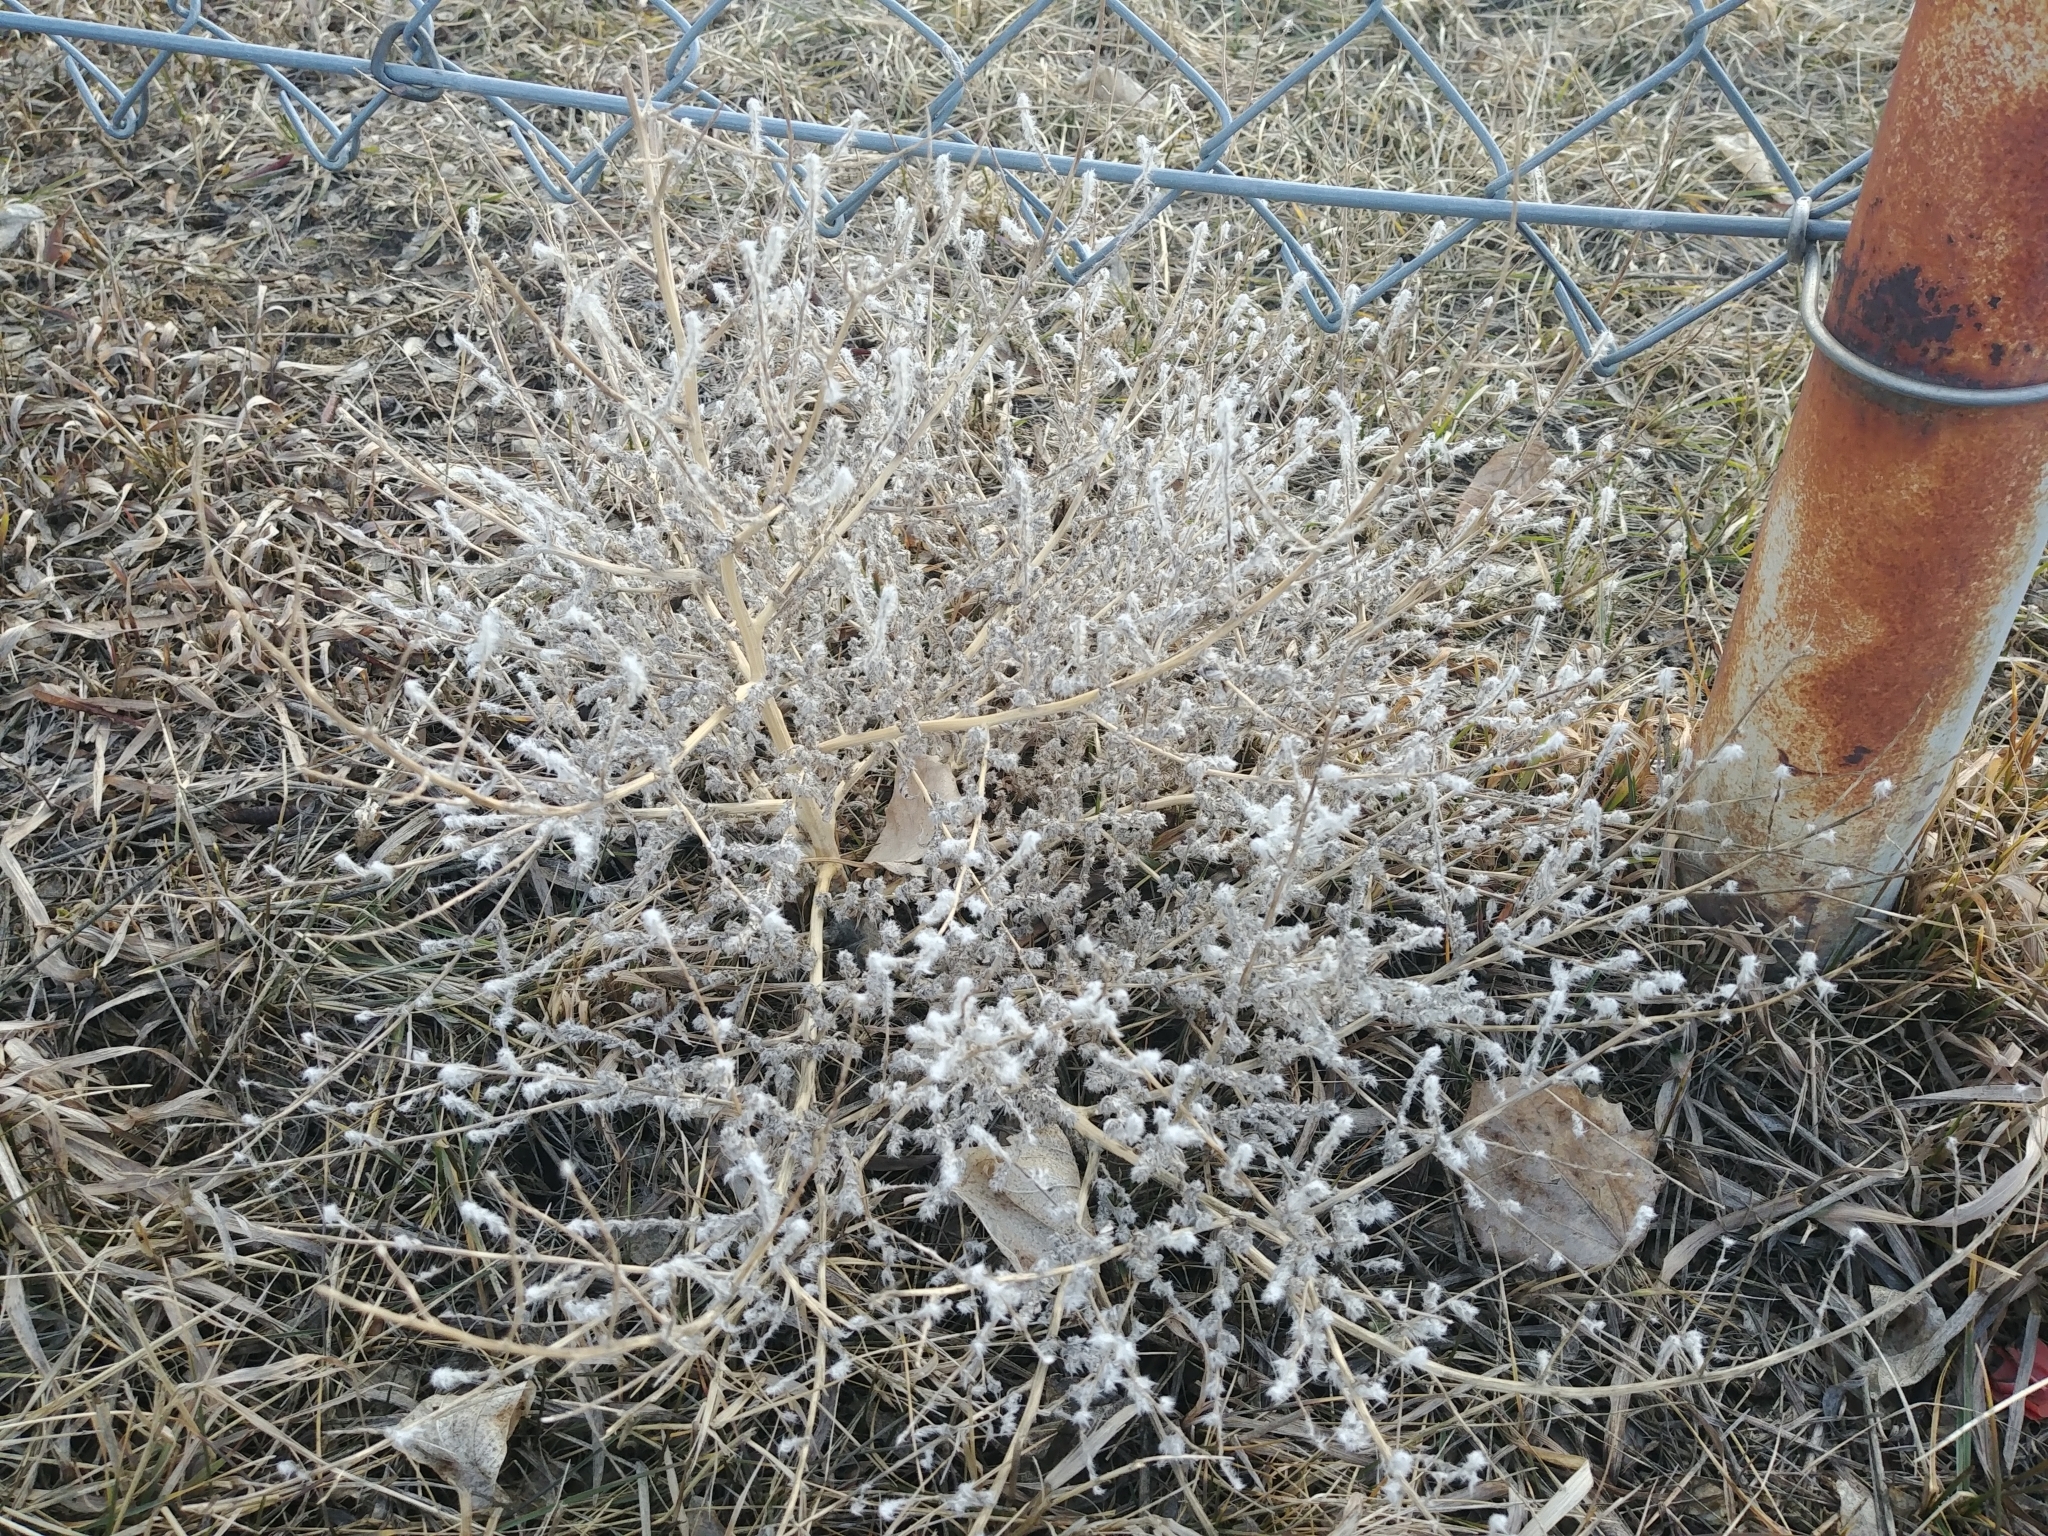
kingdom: Plantae
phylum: Tracheophyta
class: Magnoliopsida
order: Caryophyllales
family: Amaranthaceae
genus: Bassia
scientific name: Bassia scoparia
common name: Belvedere
